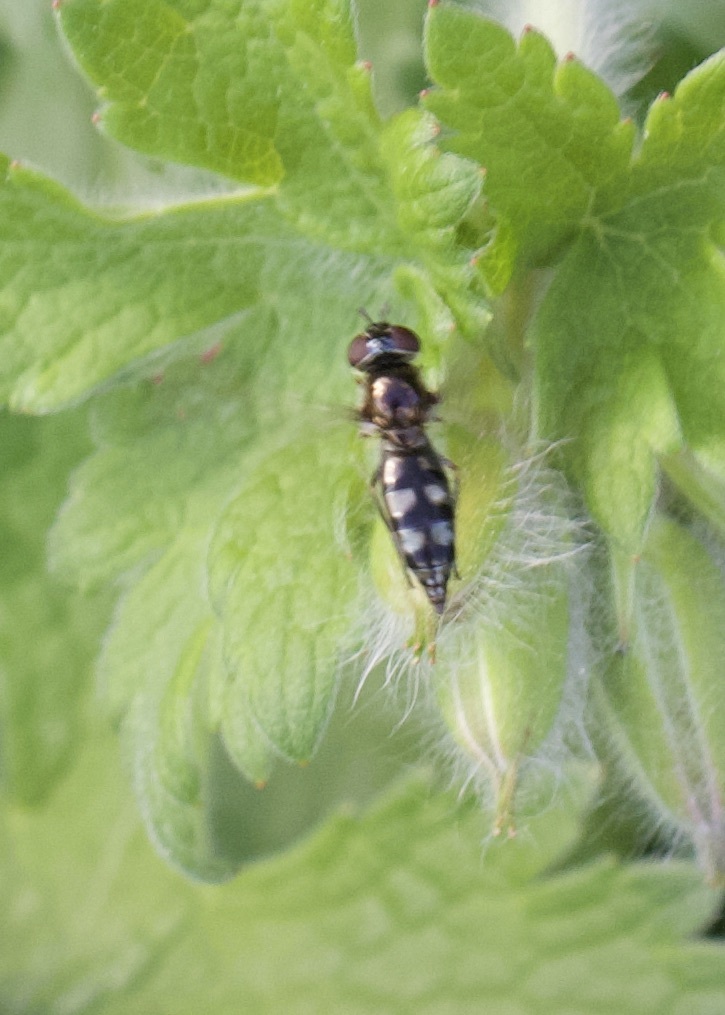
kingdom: Animalia
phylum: Arthropoda
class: Insecta
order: Diptera
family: Syrphidae
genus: Platycheirus
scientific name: Platycheirus albimanus
